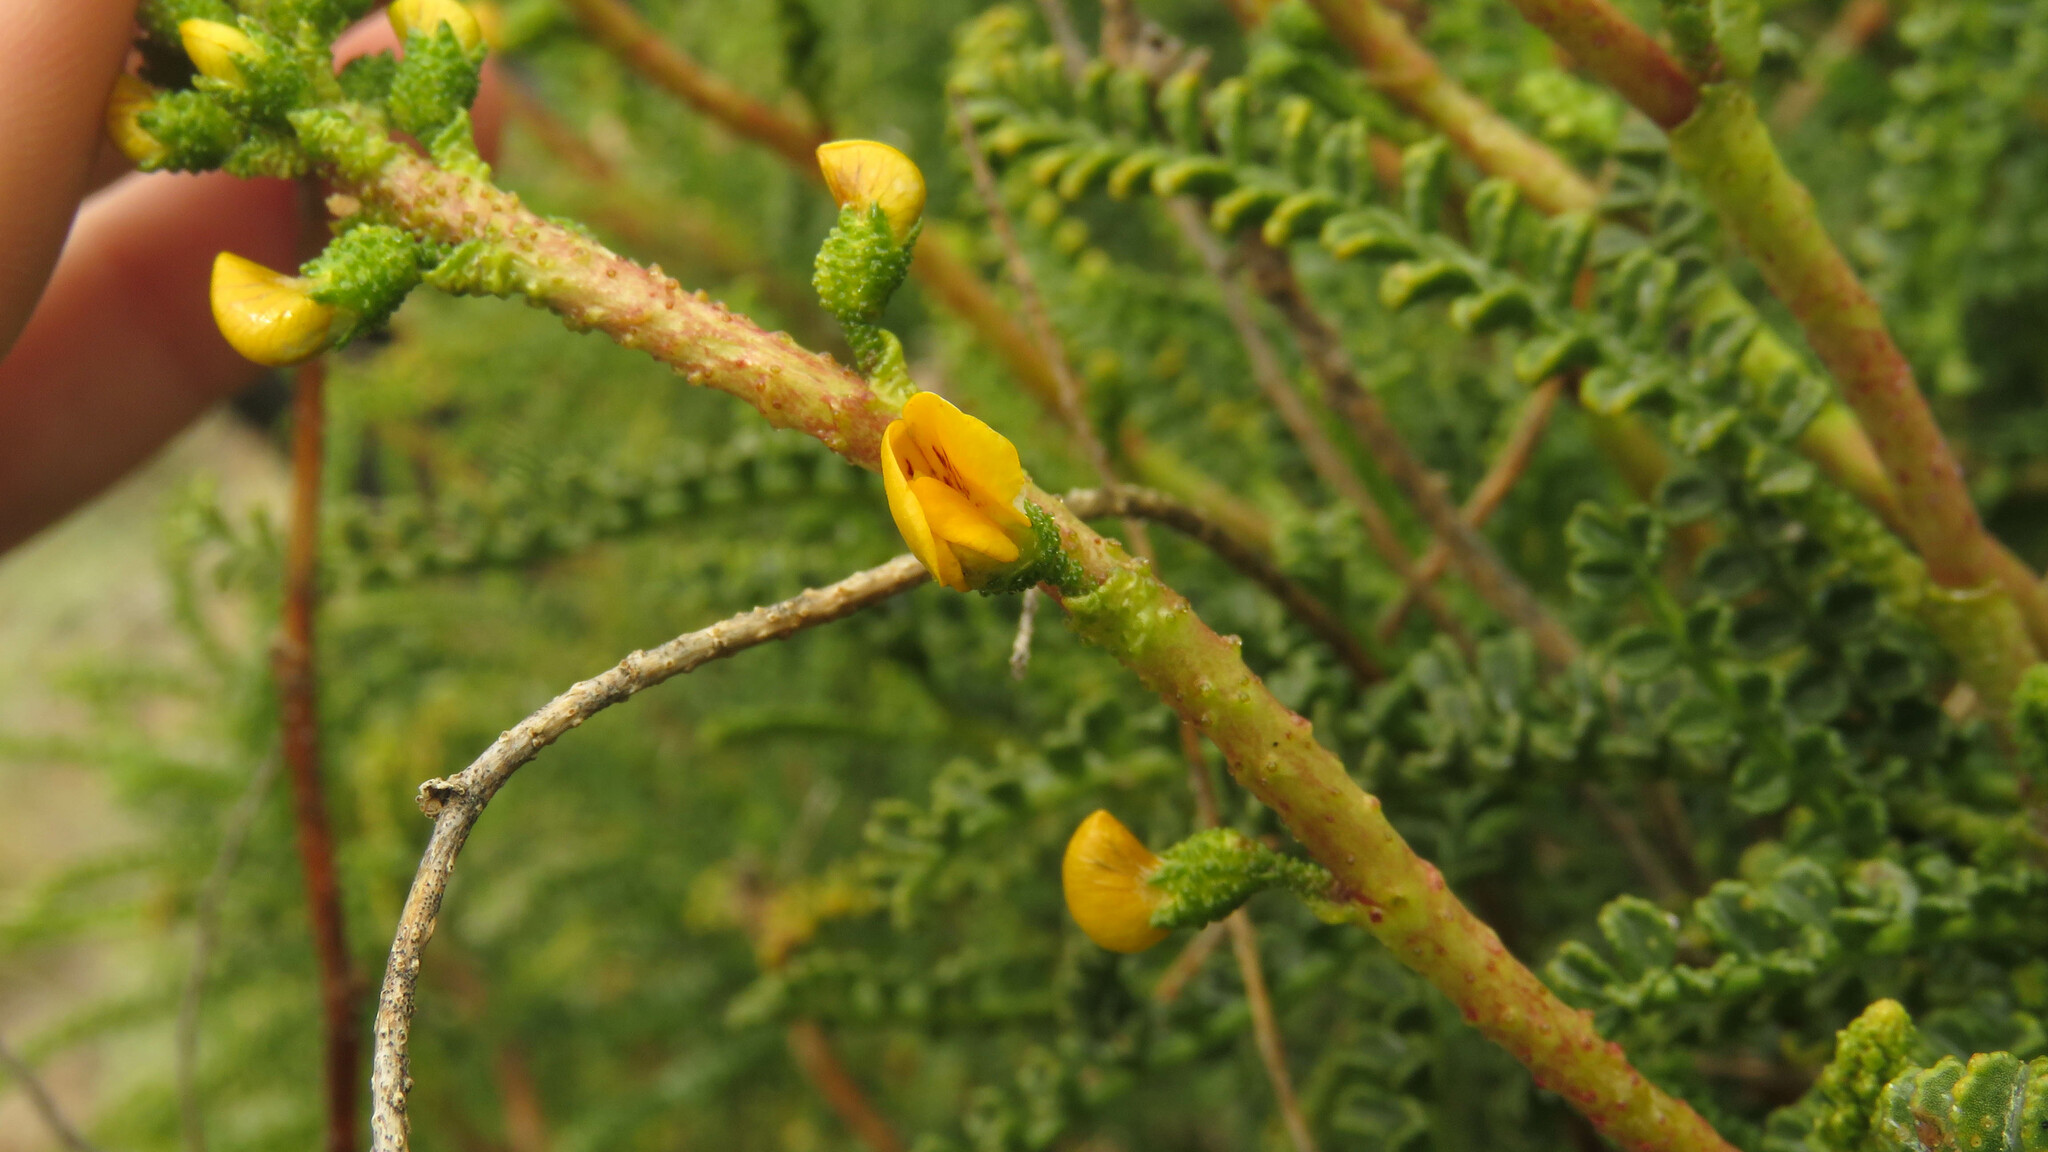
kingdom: Plantae
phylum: Tracheophyta
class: Magnoliopsida
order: Fabales
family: Fabaceae
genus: Adesmia
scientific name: Adesmia boronioides
